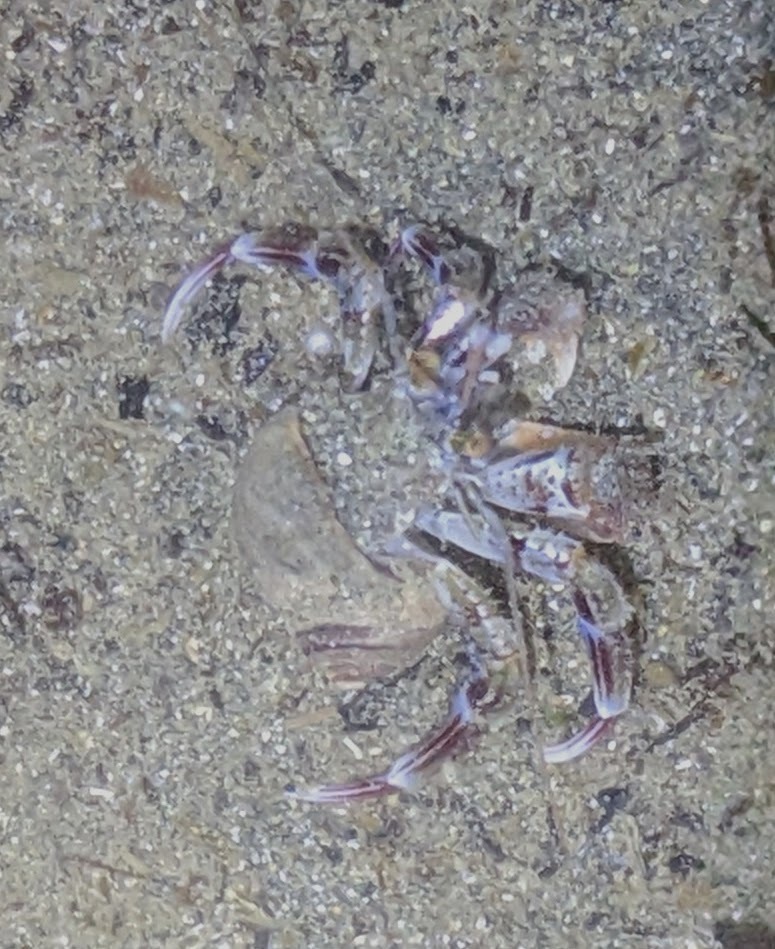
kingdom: Animalia
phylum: Arthropoda
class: Malacostraca
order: Decapoda
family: Paguridae
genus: Pagurus
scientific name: Pagurus ochotensis
